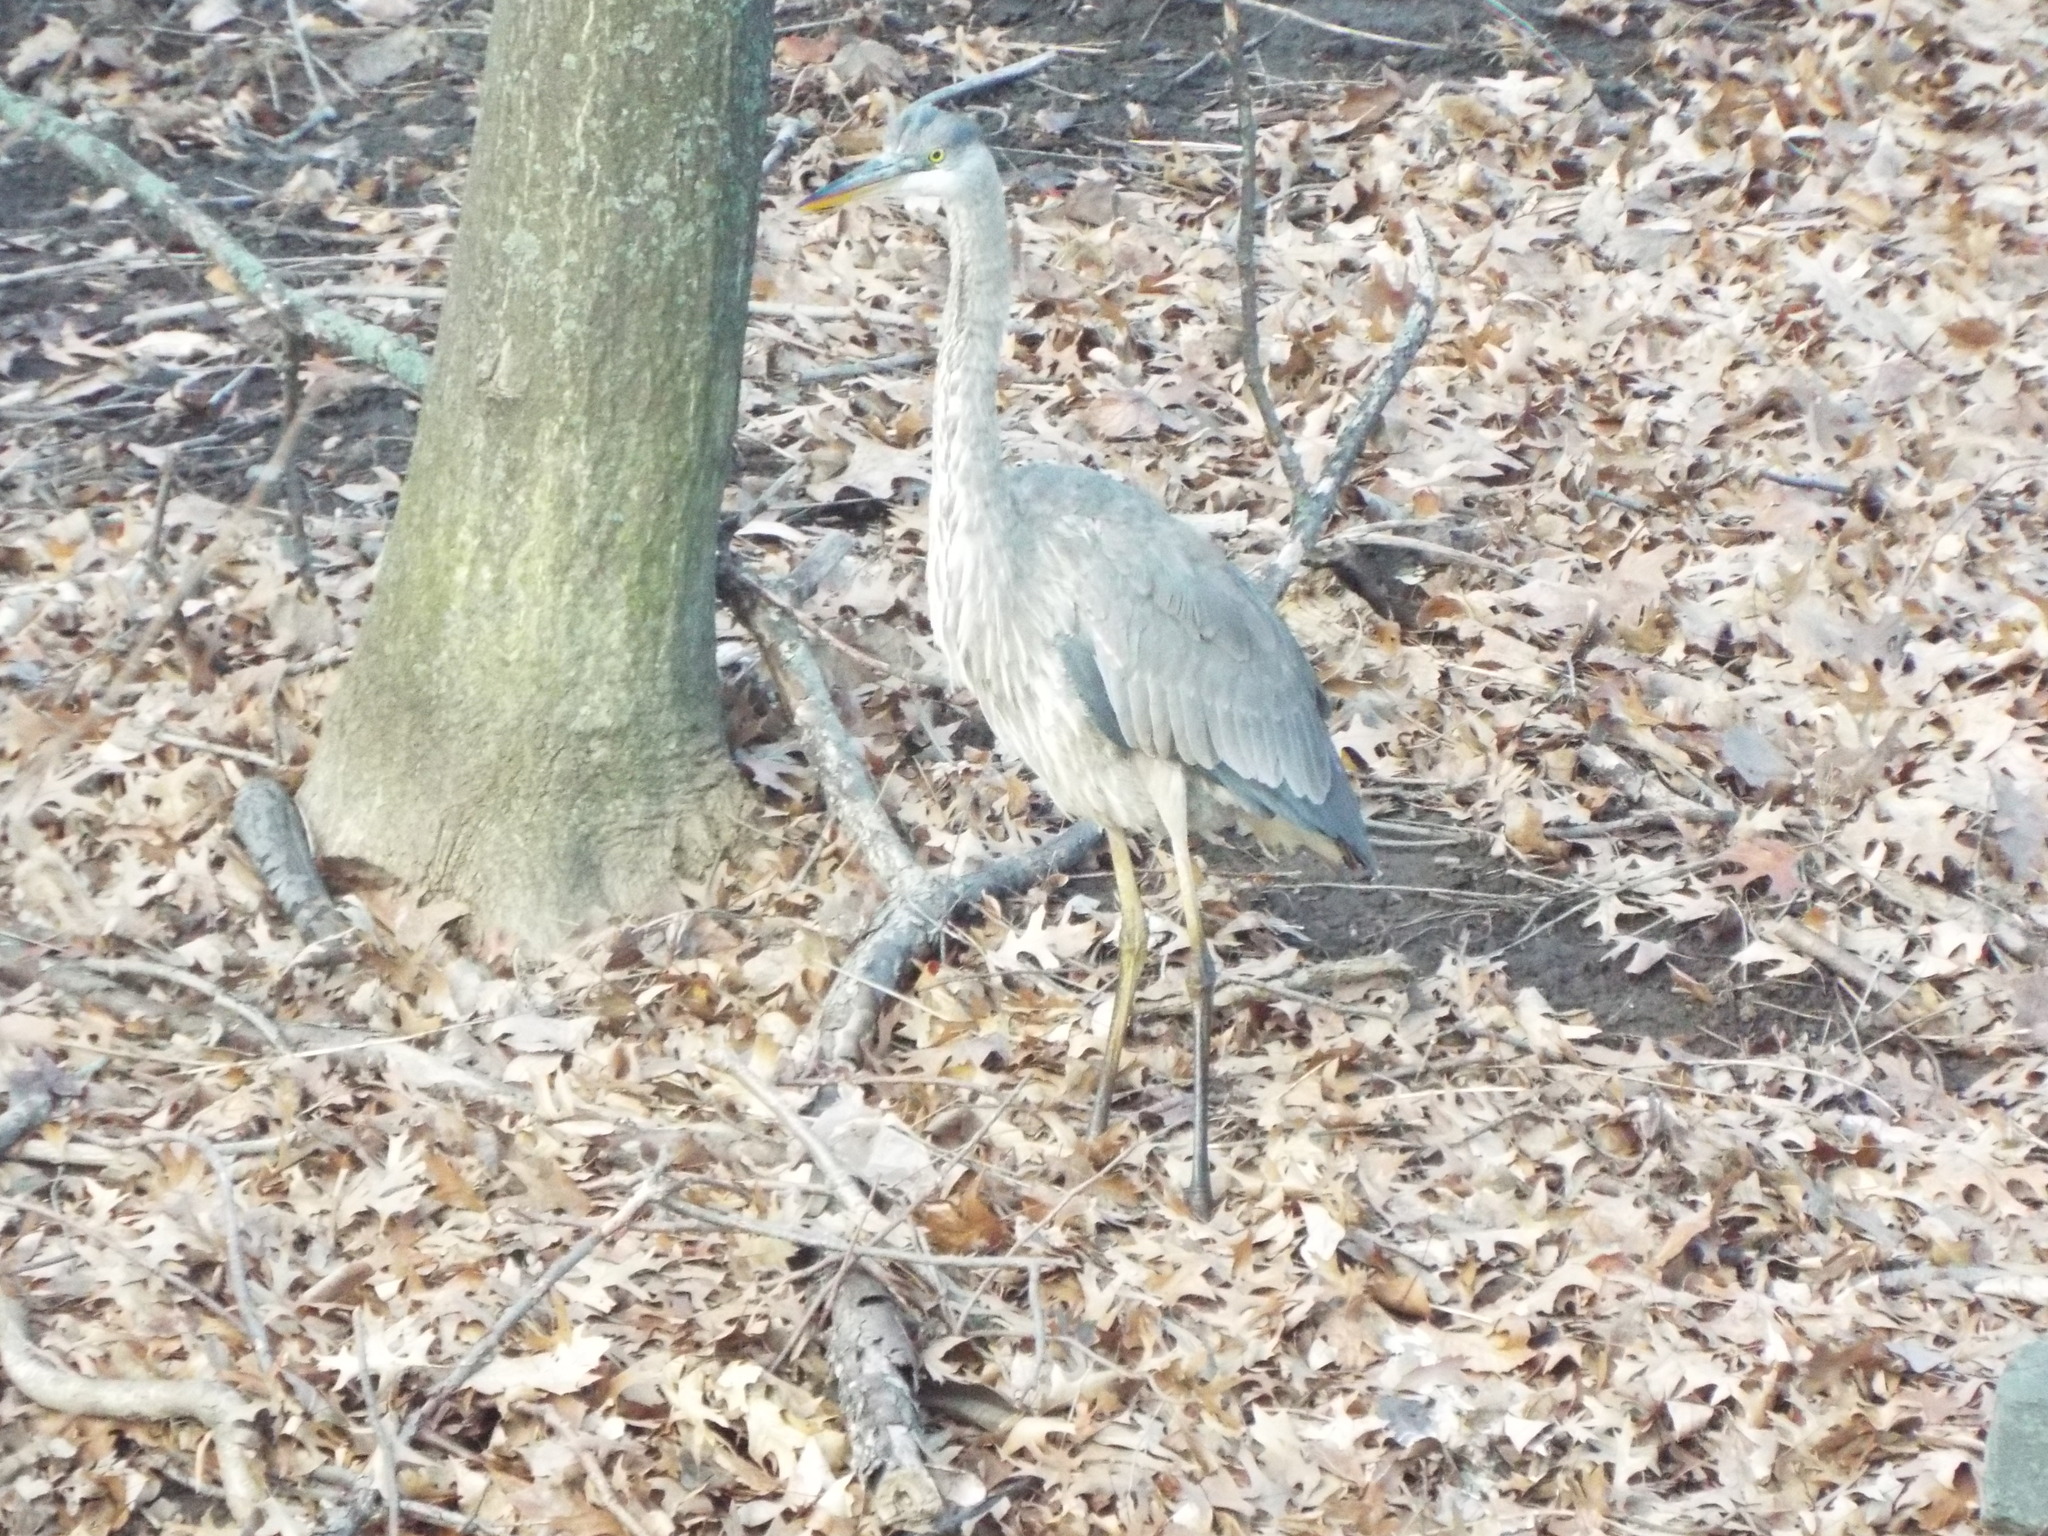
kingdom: Animalia
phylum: Chordata
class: Aves
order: Pelecaniformes
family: Ardeidae
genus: Ardea
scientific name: Ardea herodias
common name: Great blue heron
